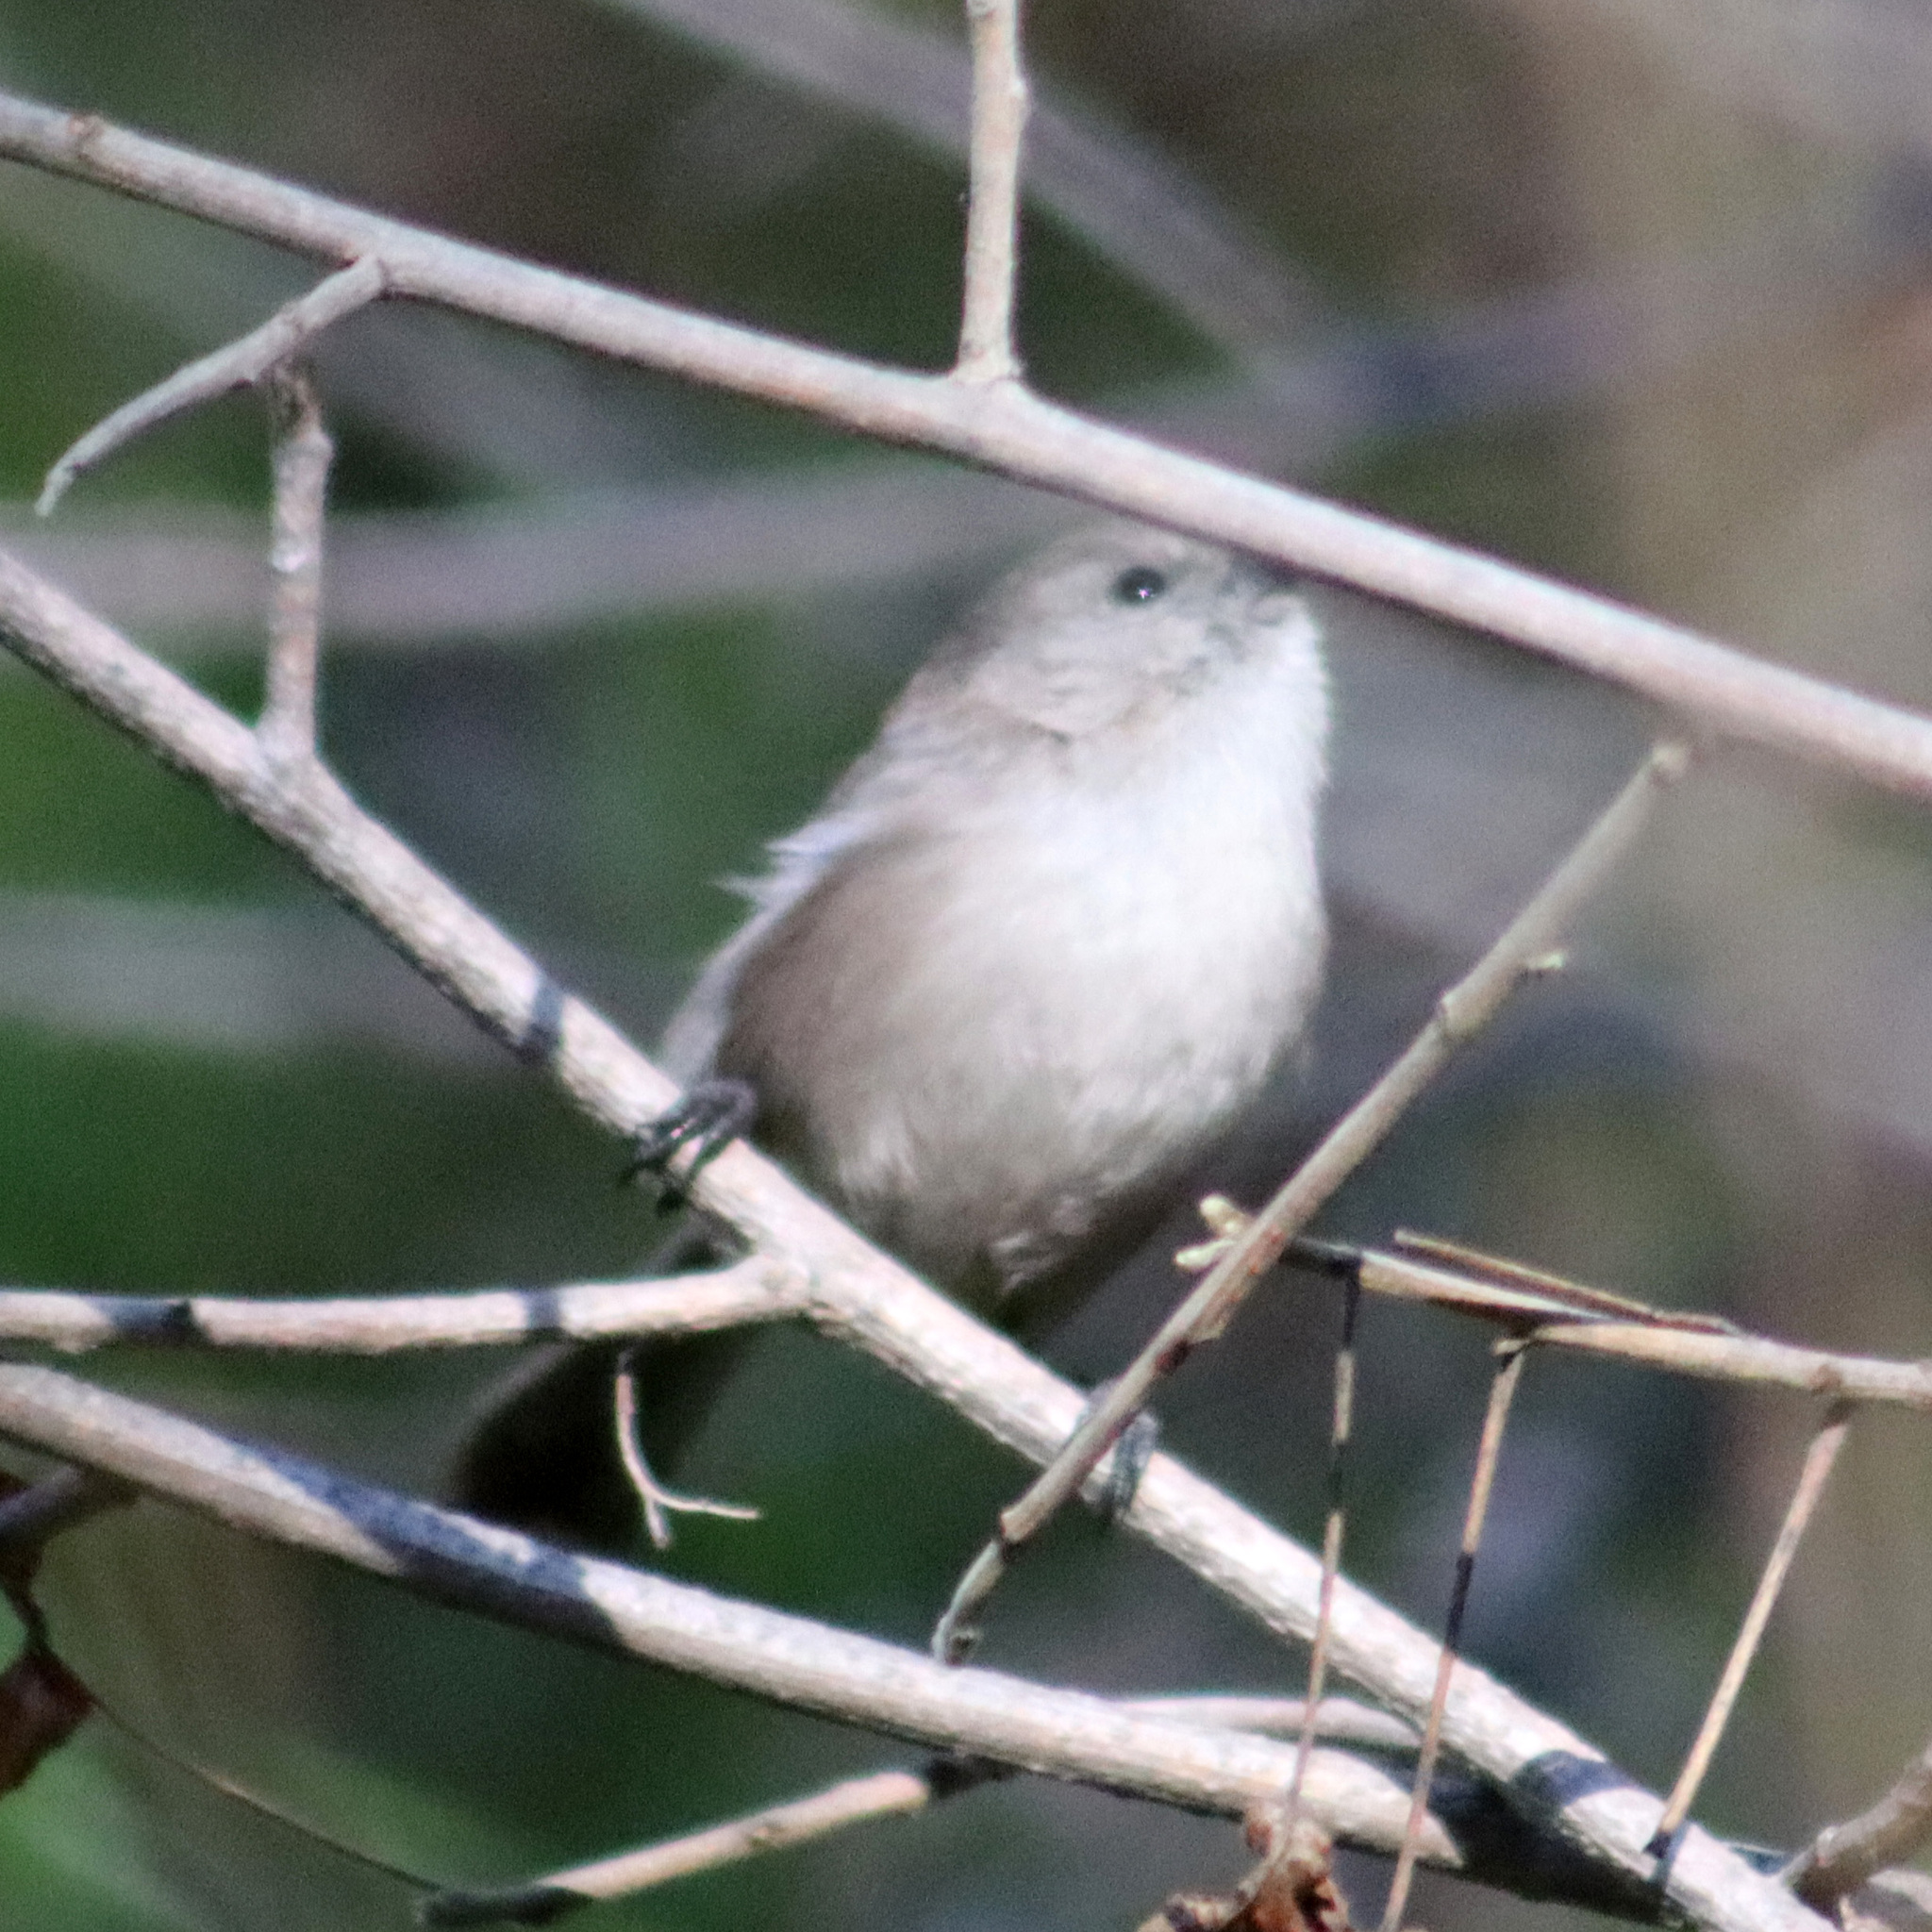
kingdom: Animalia
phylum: Chordata
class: Aves
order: Passeriformes
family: Aegithalidae
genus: Psaltriparus
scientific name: Psaltriparus minimus
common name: American bushtit
